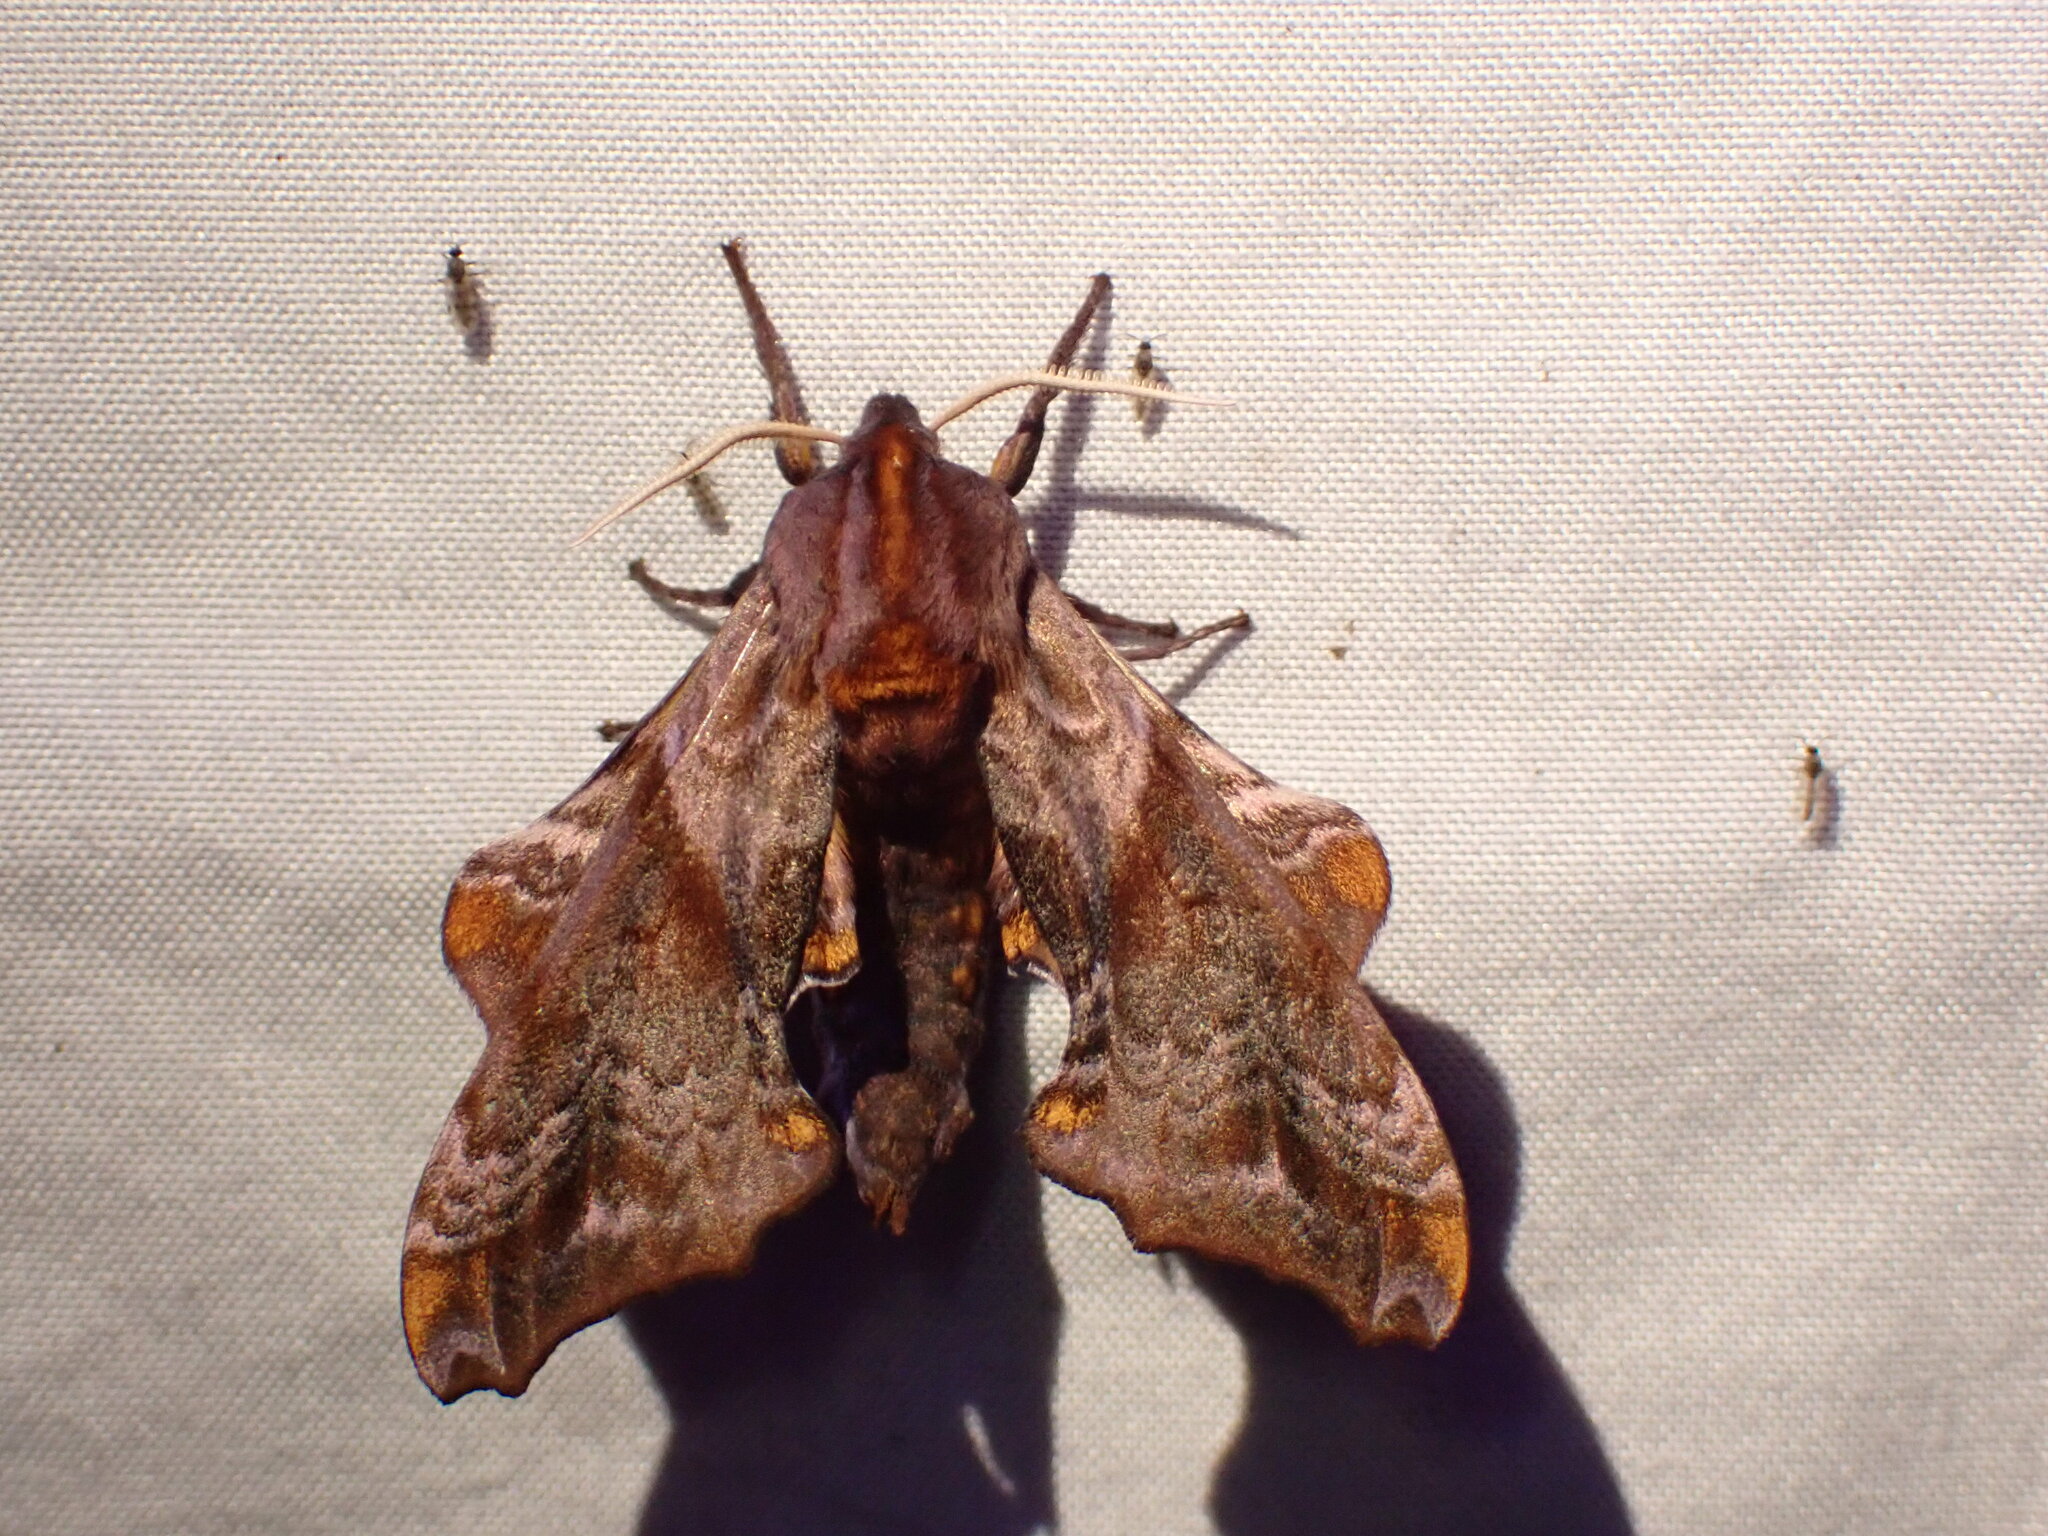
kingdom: Animalia
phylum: Arthropoda
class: Insecta
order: Lepidoptera
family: Sphingidae
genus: Paonias
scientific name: Paonias myops
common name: Small-eyed sphinx
